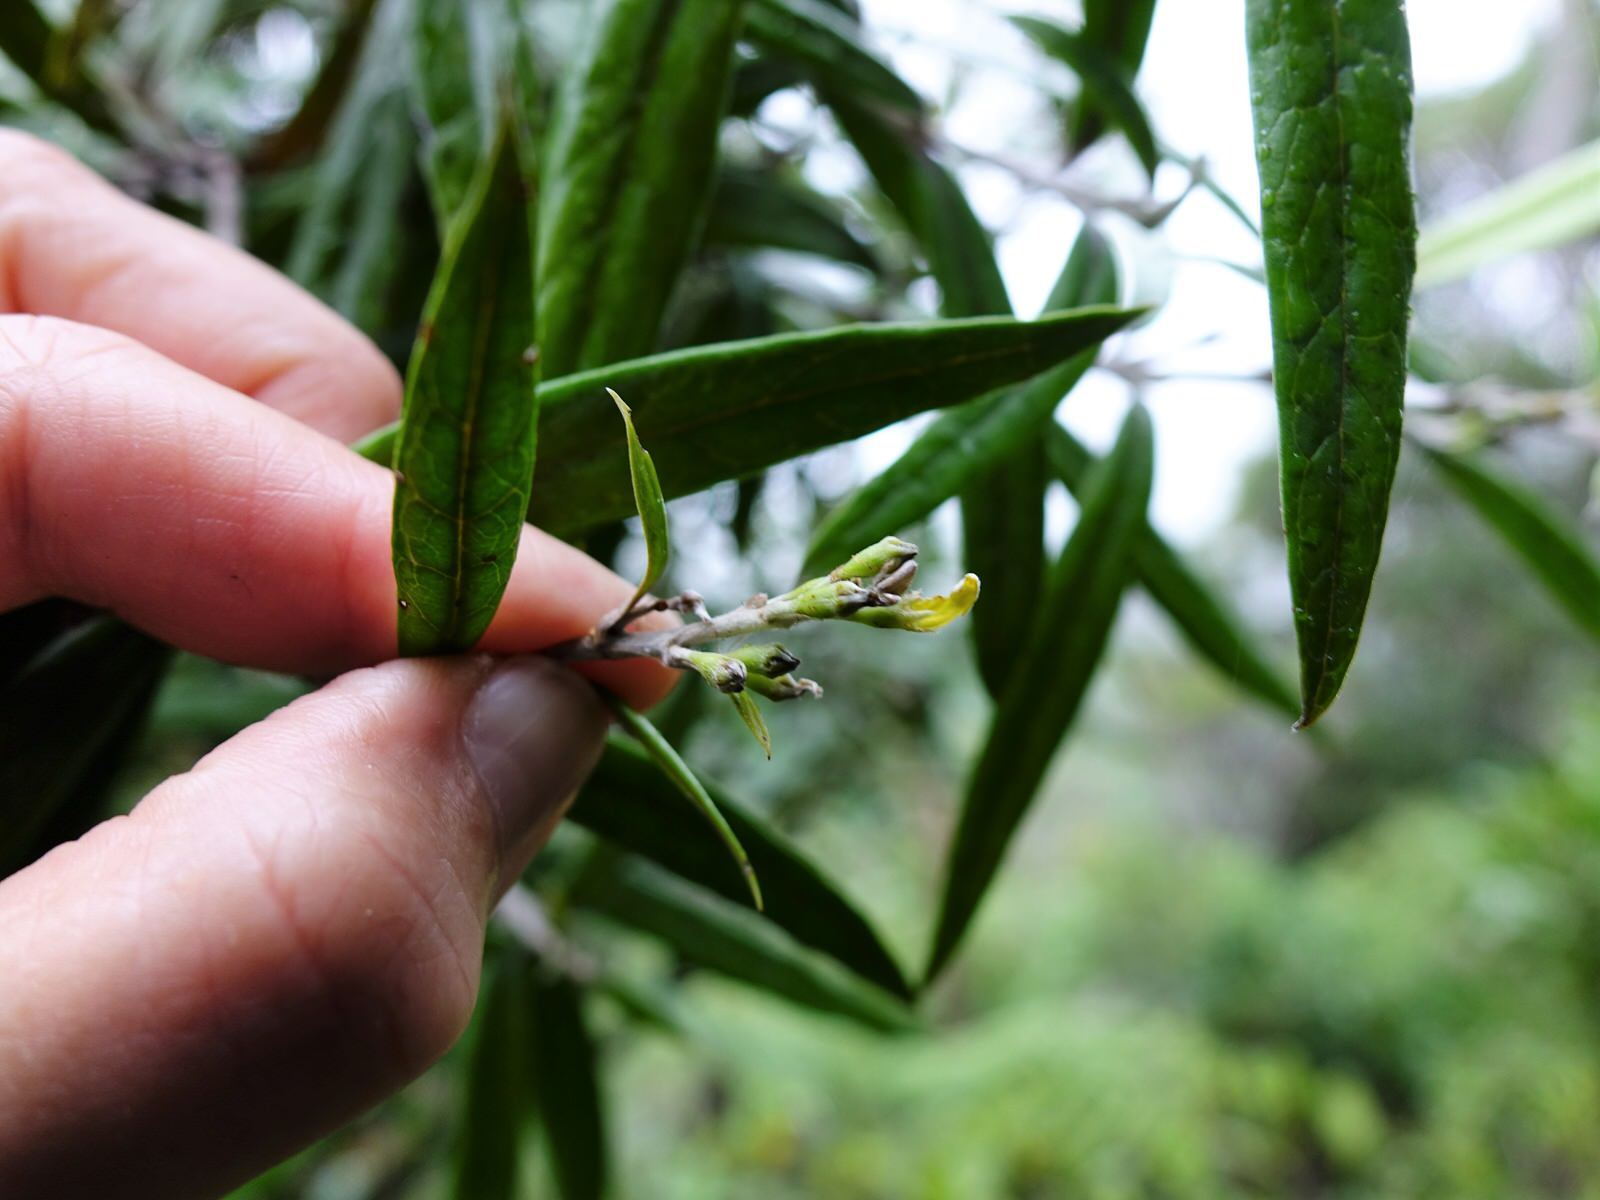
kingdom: Plantae
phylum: Tracheophyta
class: Magnoliopsida
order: Asterales
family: Argophyllaceae
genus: Corokia
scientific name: Corokia buddleioides
